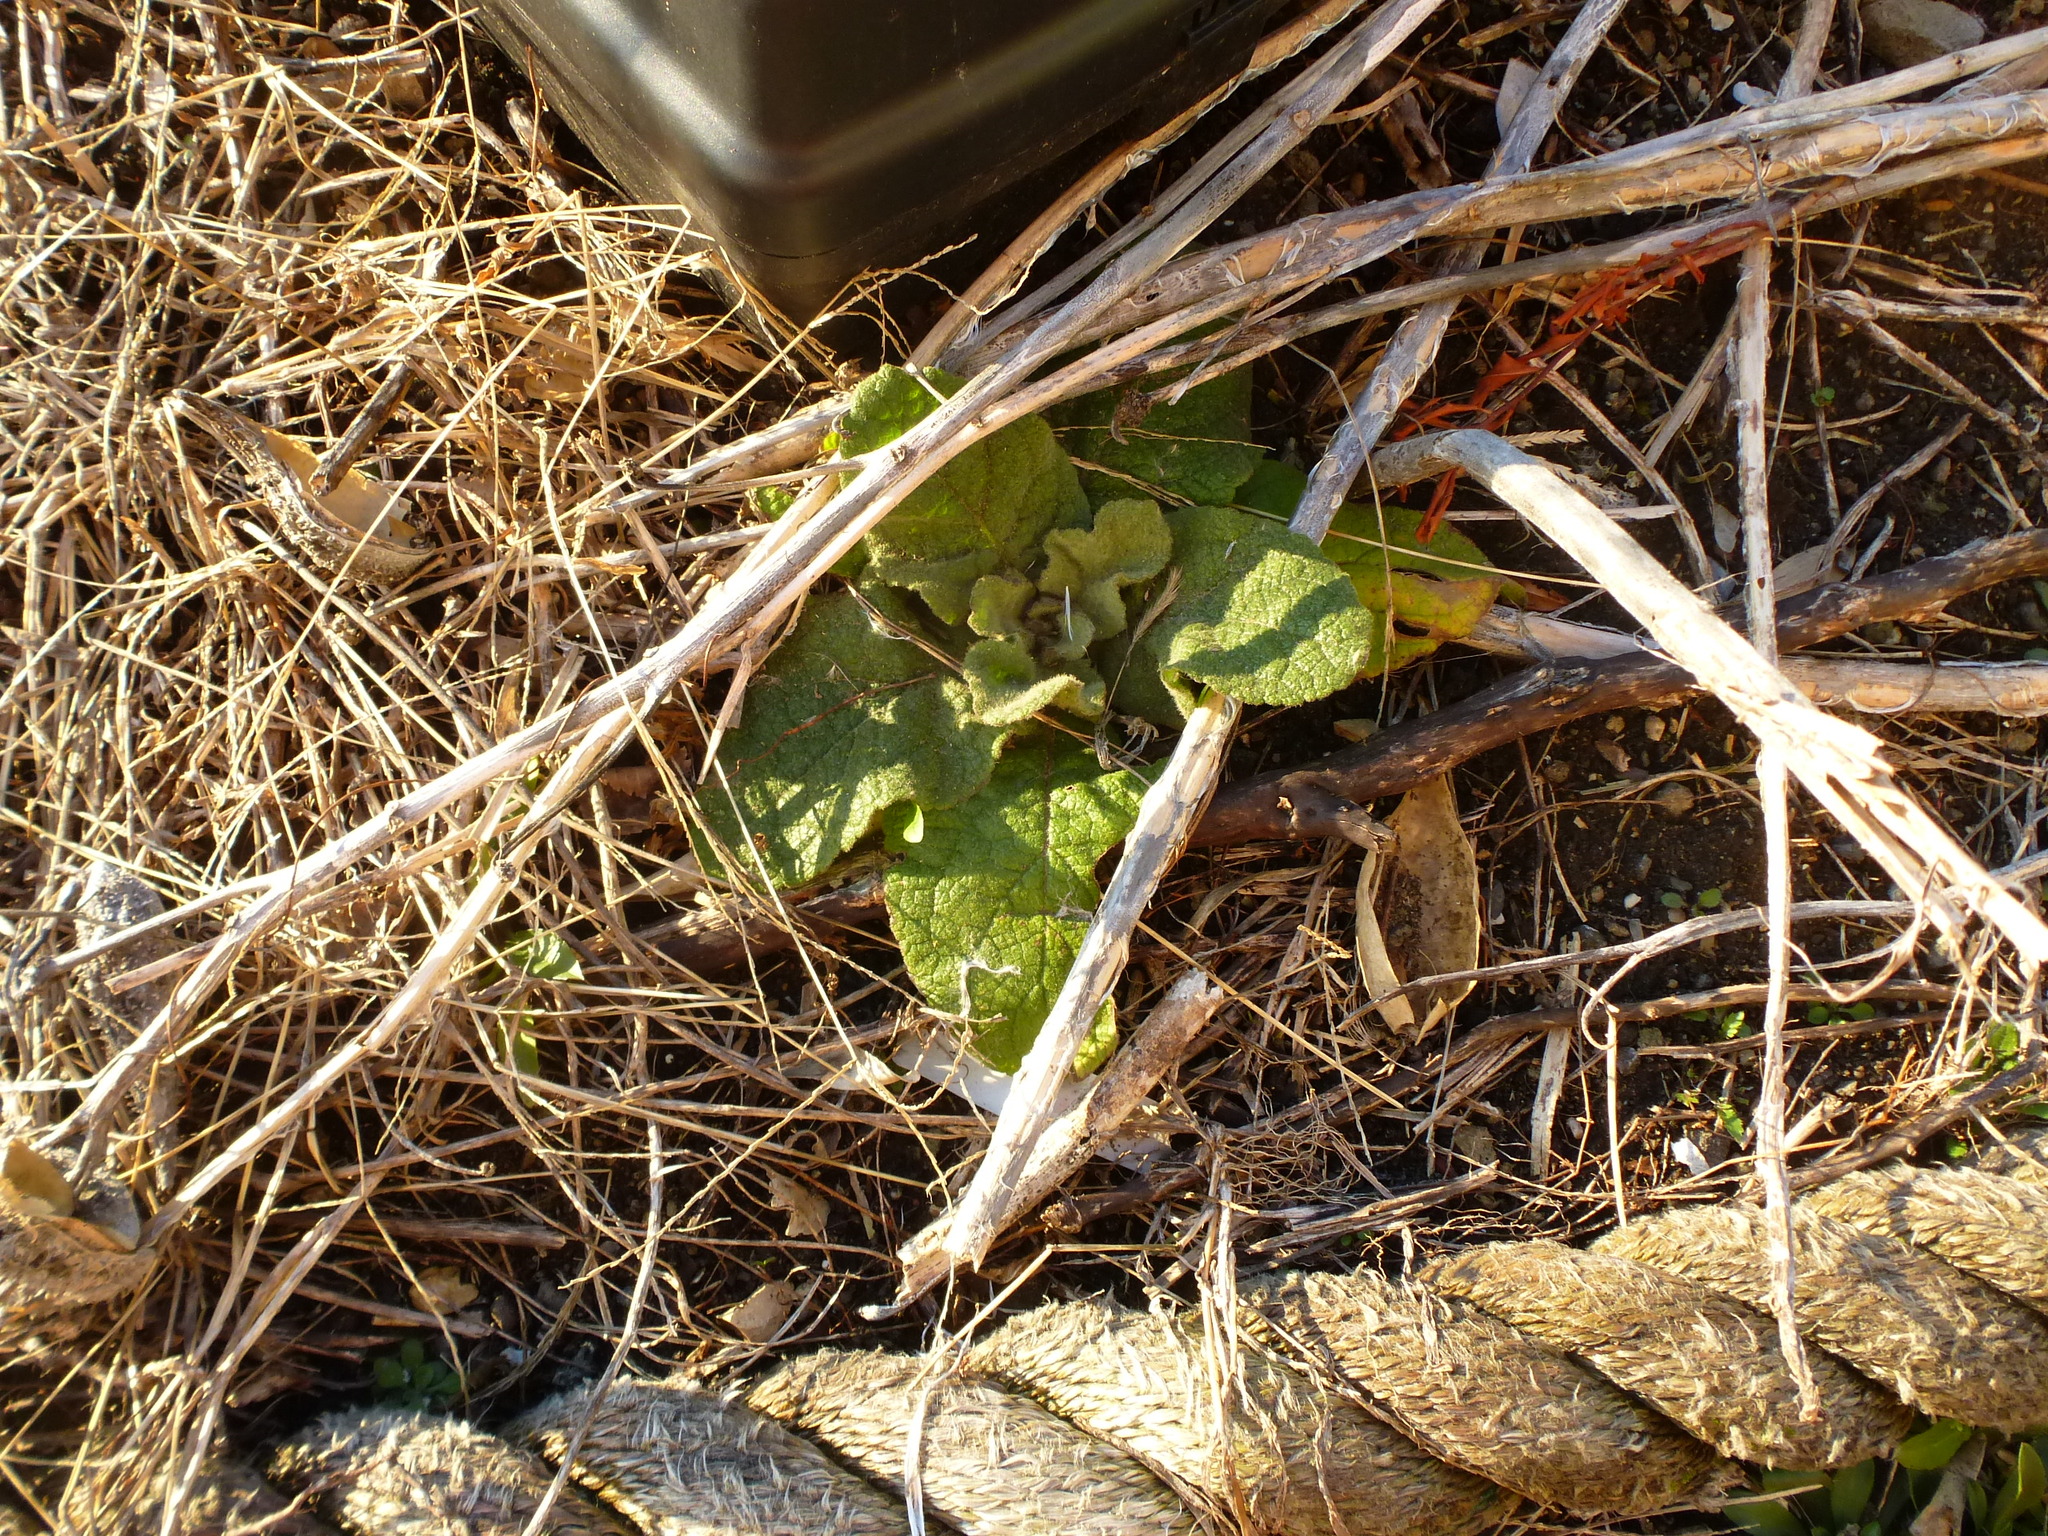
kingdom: Plantae
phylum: Tracheophyta
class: Magnoliopsida
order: Lamiales
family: Scrophulariaceae
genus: Verbascum
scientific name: Verbascum thapsus
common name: Common mullein
